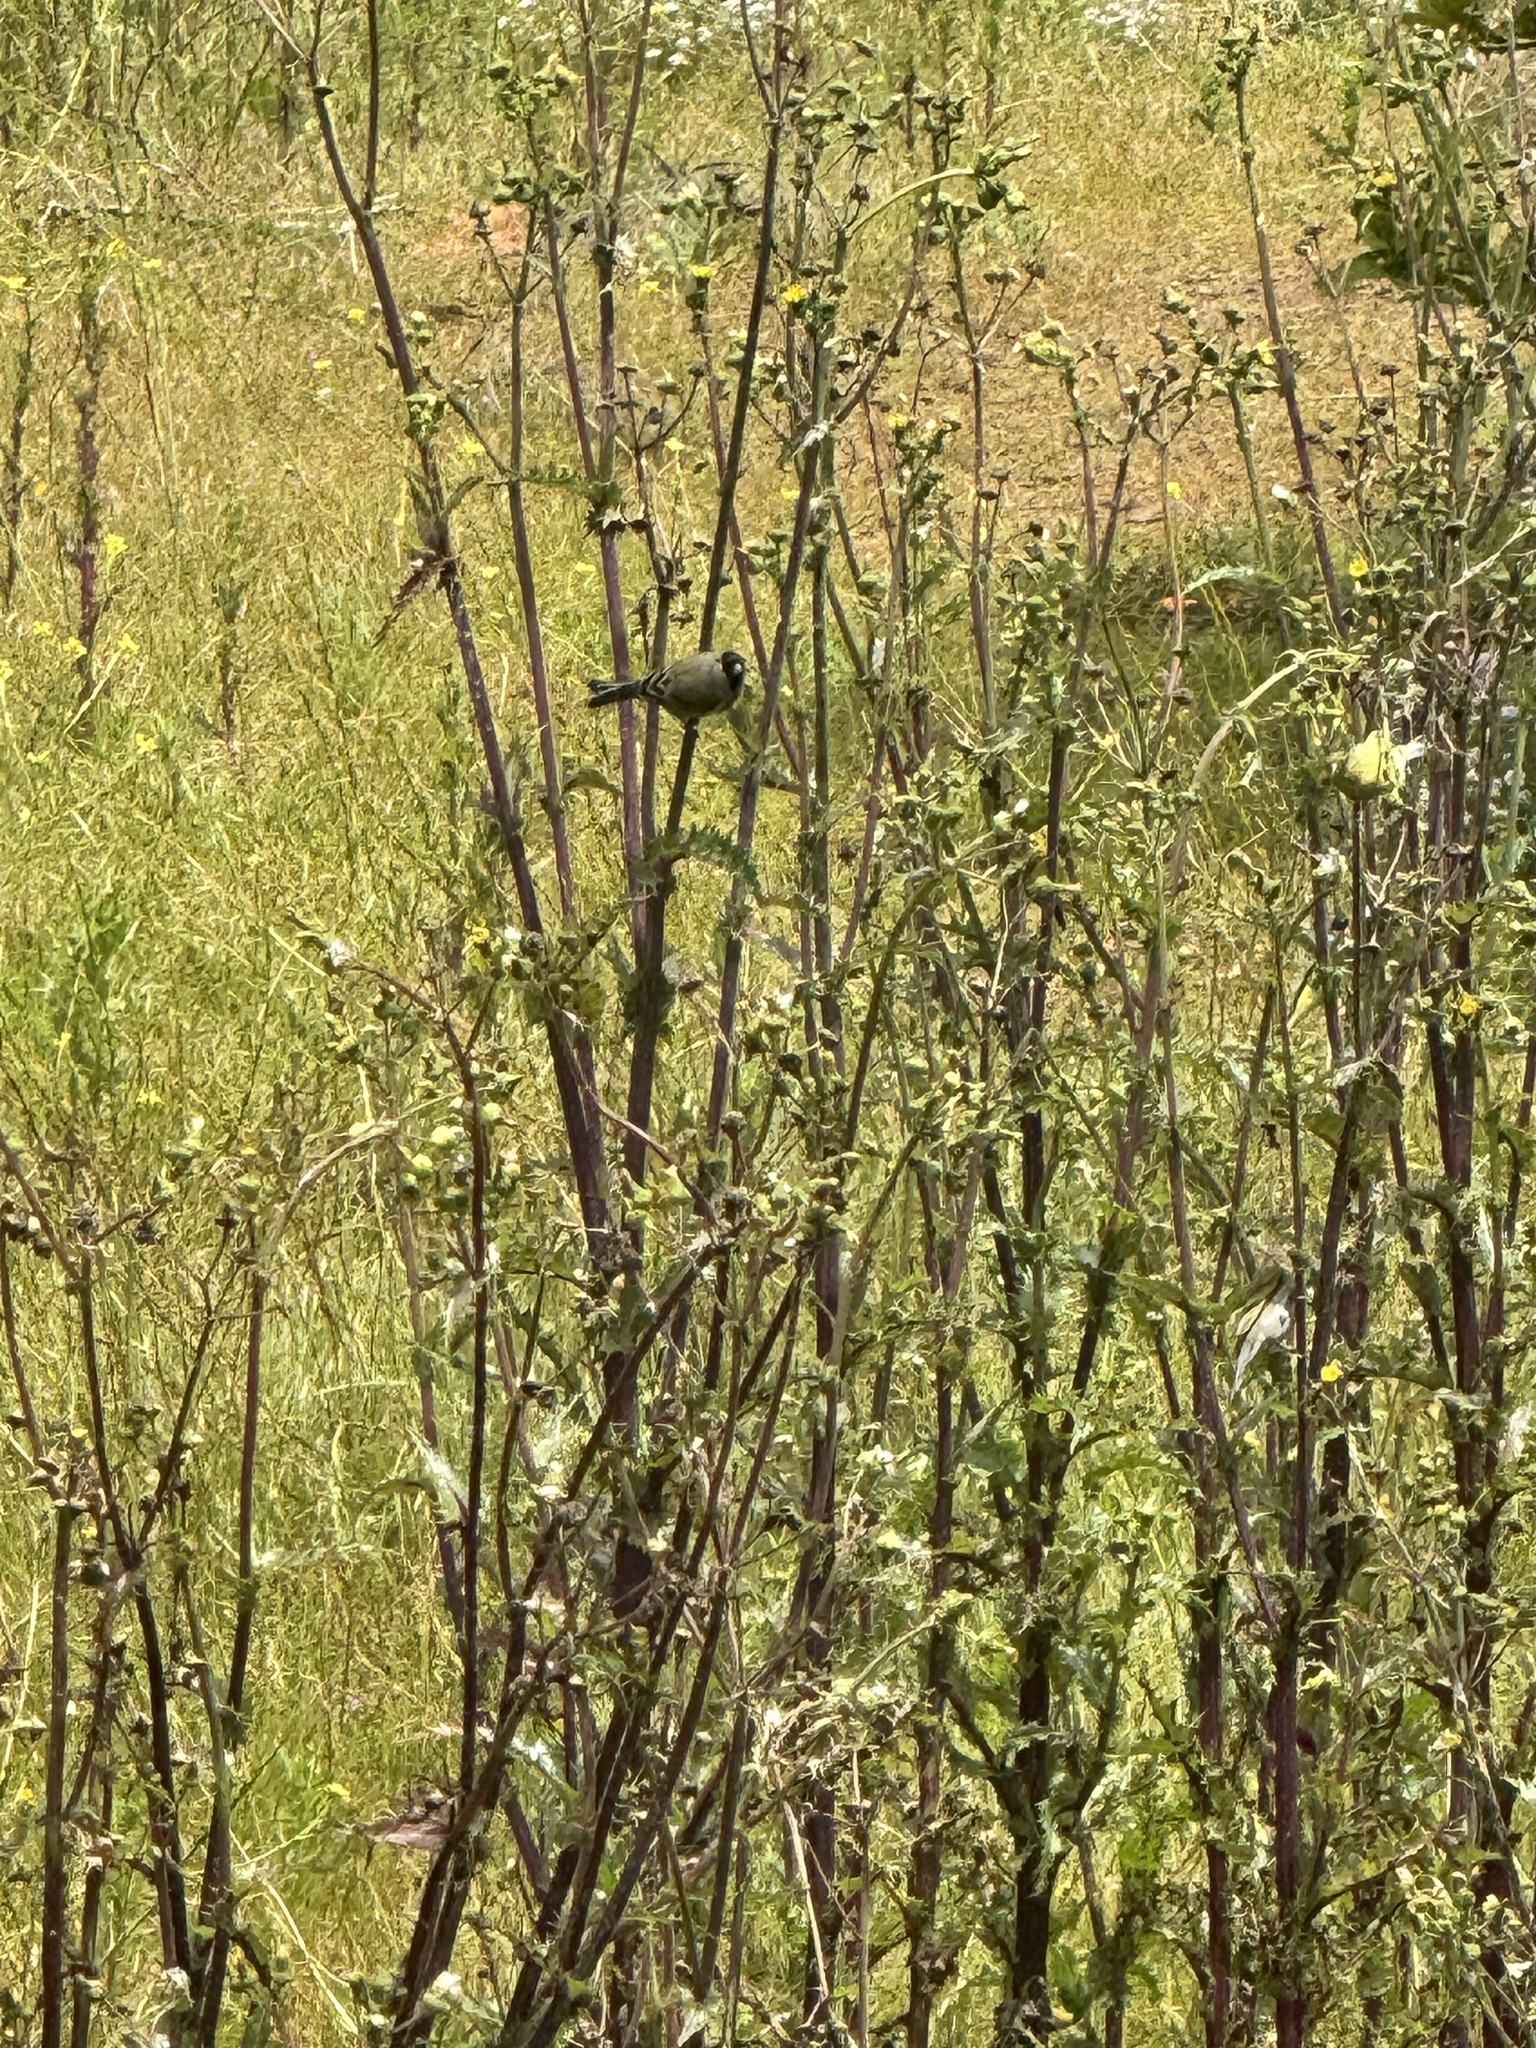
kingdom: Animalia
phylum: Chordata
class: Aves
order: Passeriformes
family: Fringillidae
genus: Spinus
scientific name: Spinus lawrencei
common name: Lawrence's goldfinch
